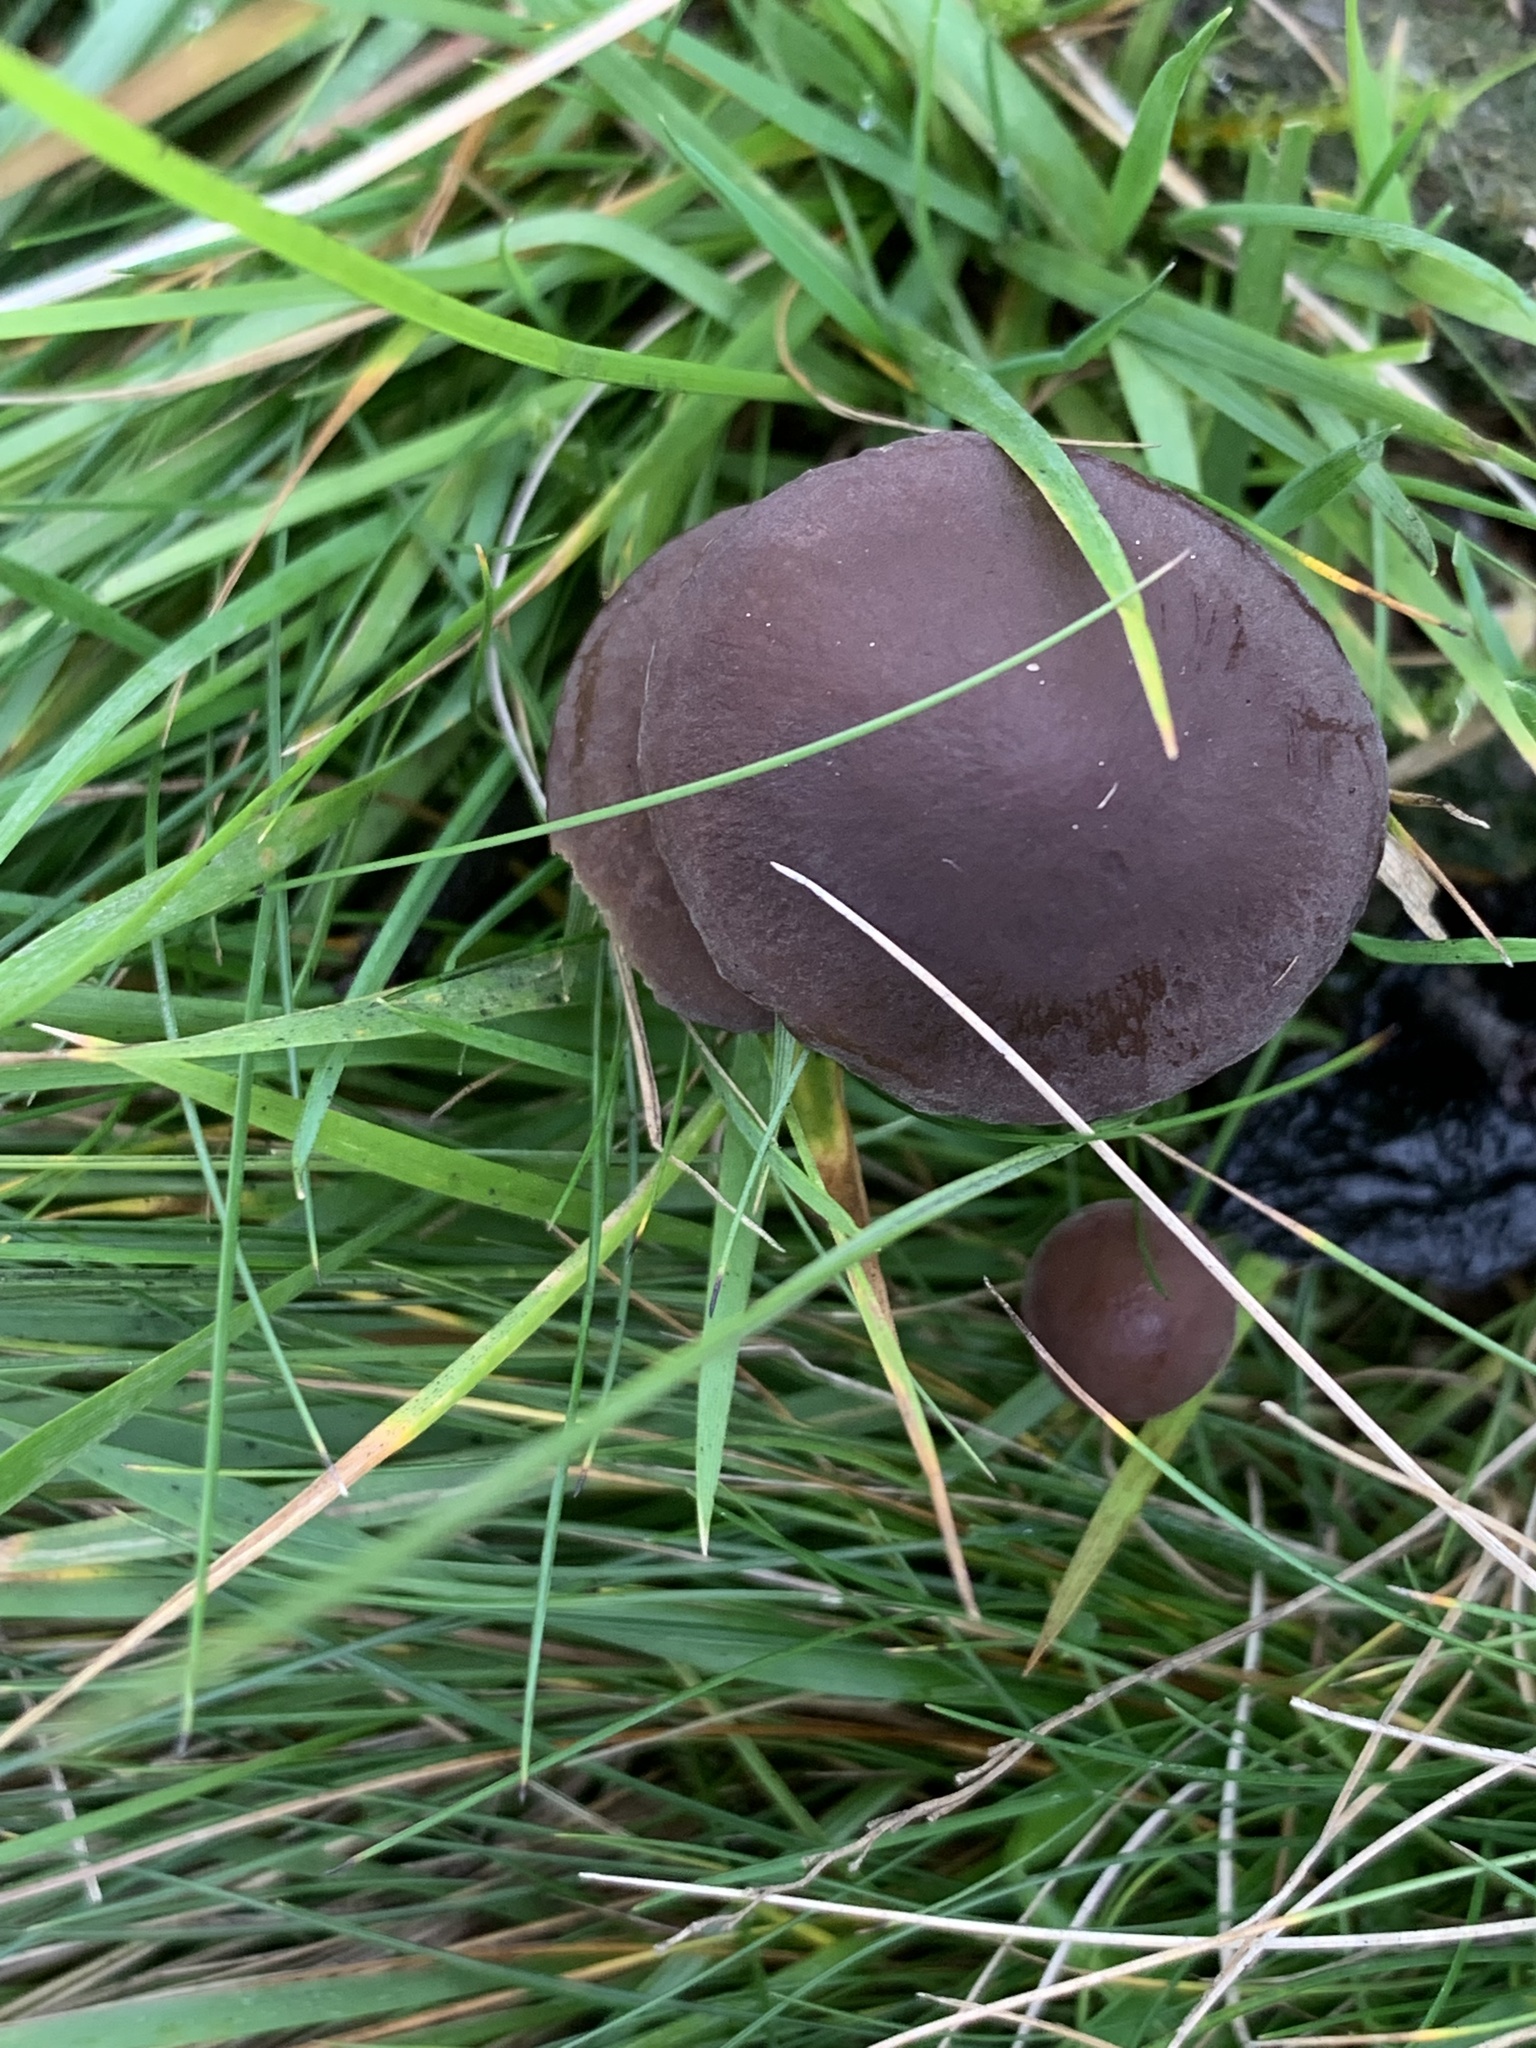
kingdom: Fungi
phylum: Basidiomycota
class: Agaricomycetes
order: Agaricales
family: Bolbitiaceae
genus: Panaeolus
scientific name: Panaeolus acuminatus
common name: Dewdrop mottlegill
